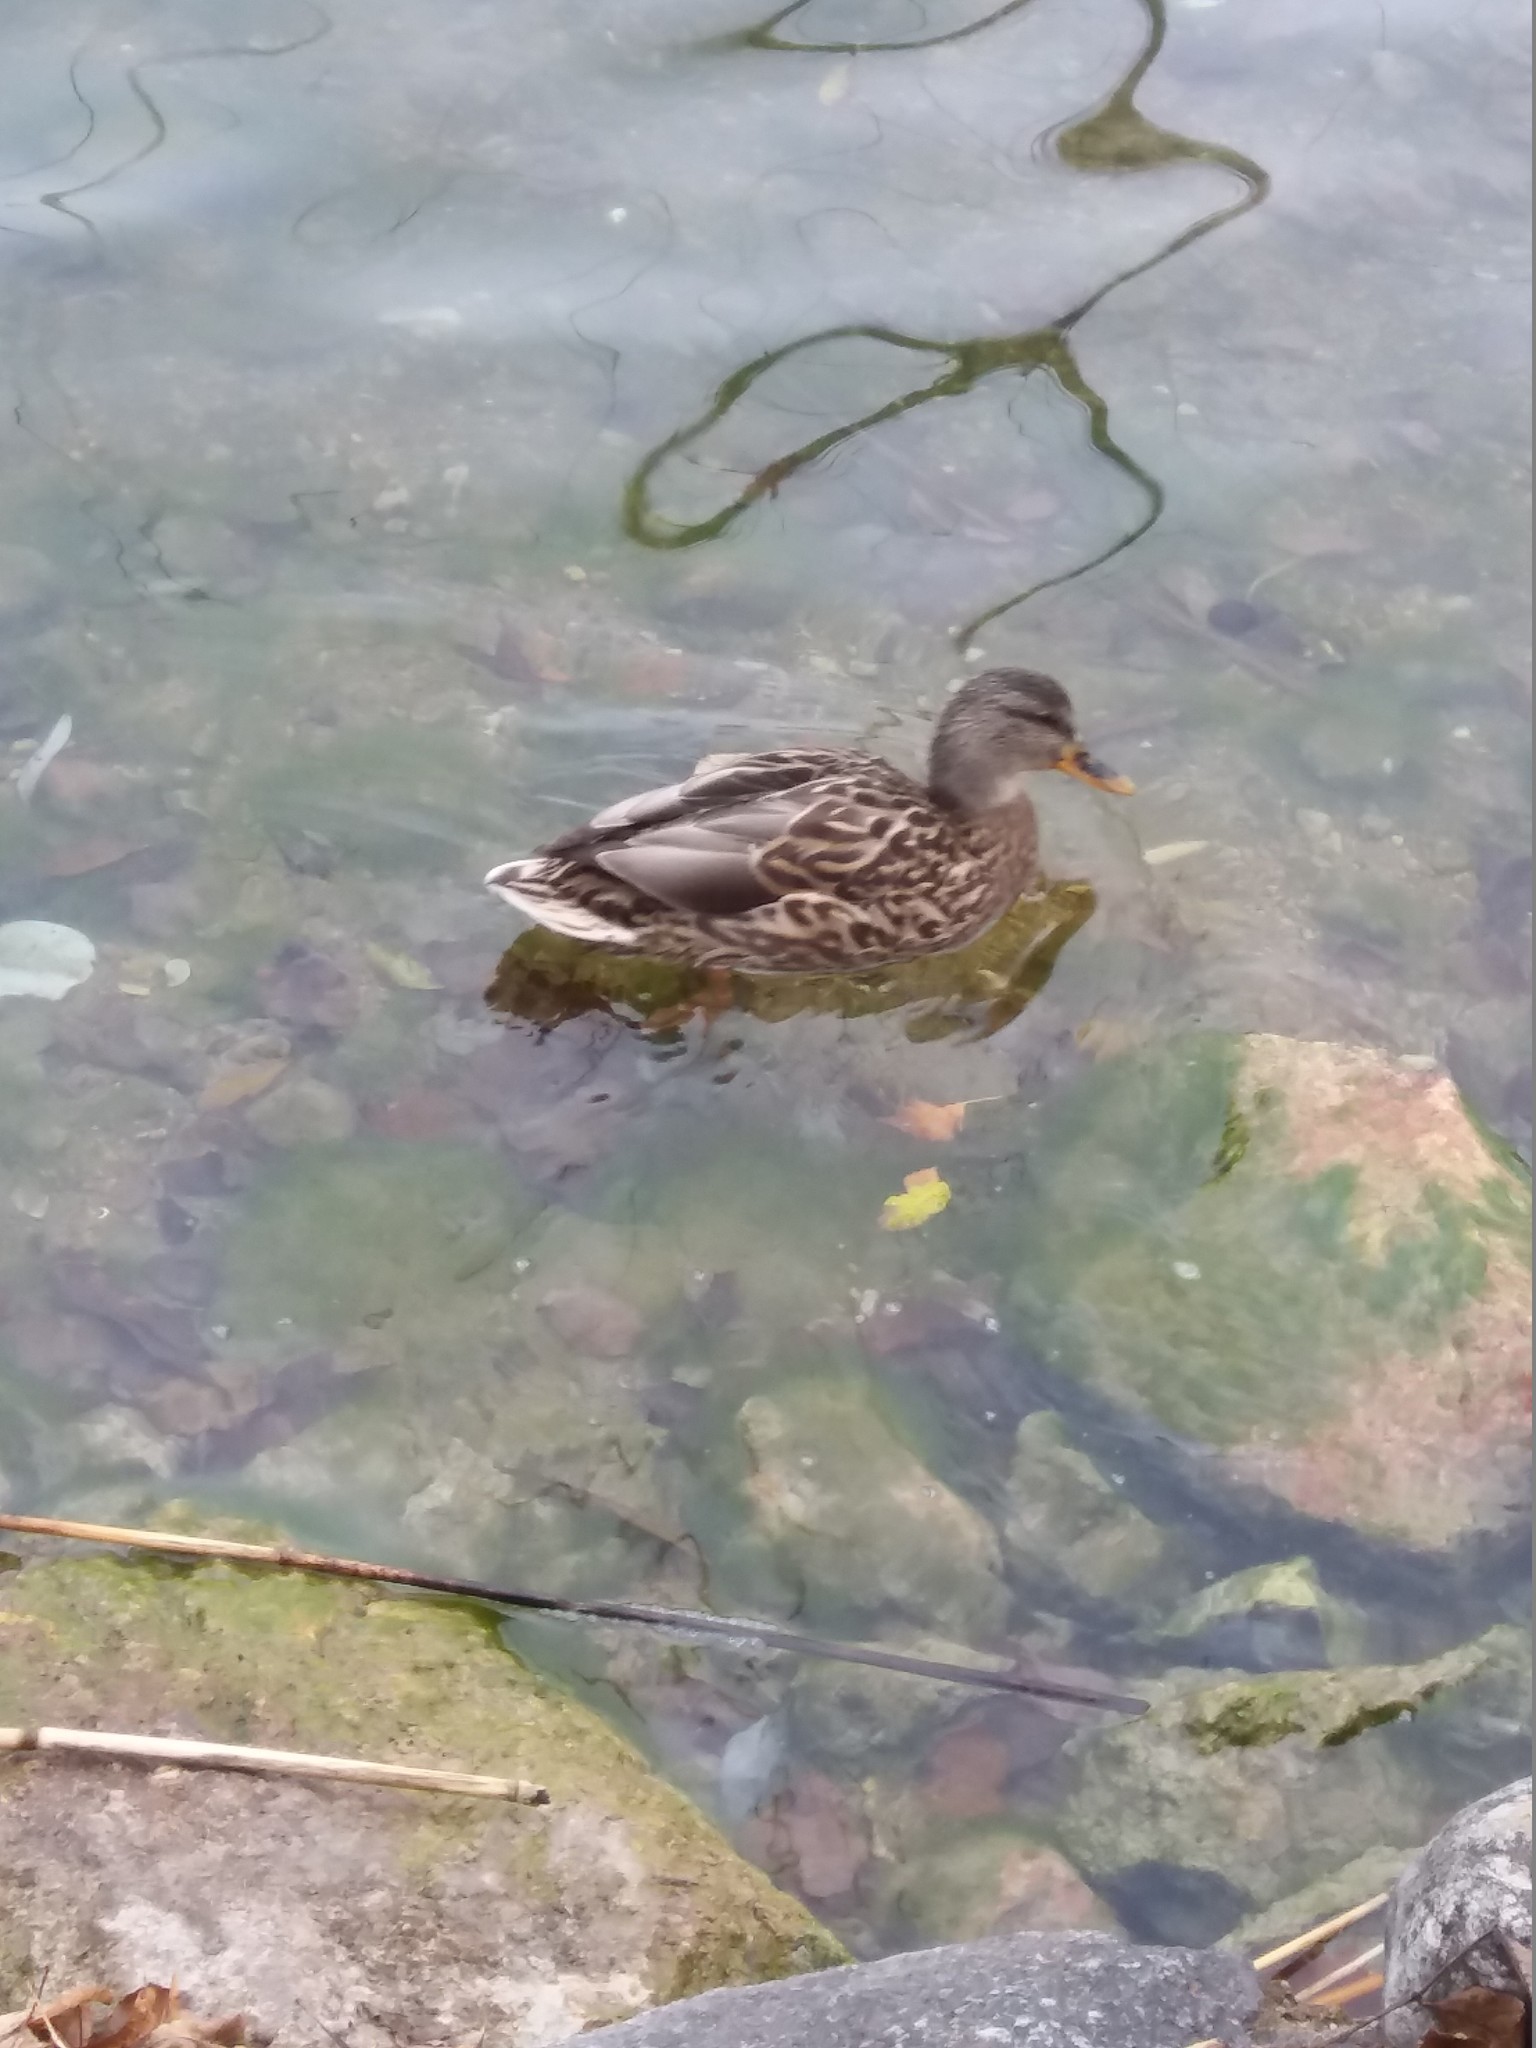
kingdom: Animalia
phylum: Chordata
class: Aves
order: Anseriformes
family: Anatidae
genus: Anas
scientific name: Anas platyrhynchos
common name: Mallard
